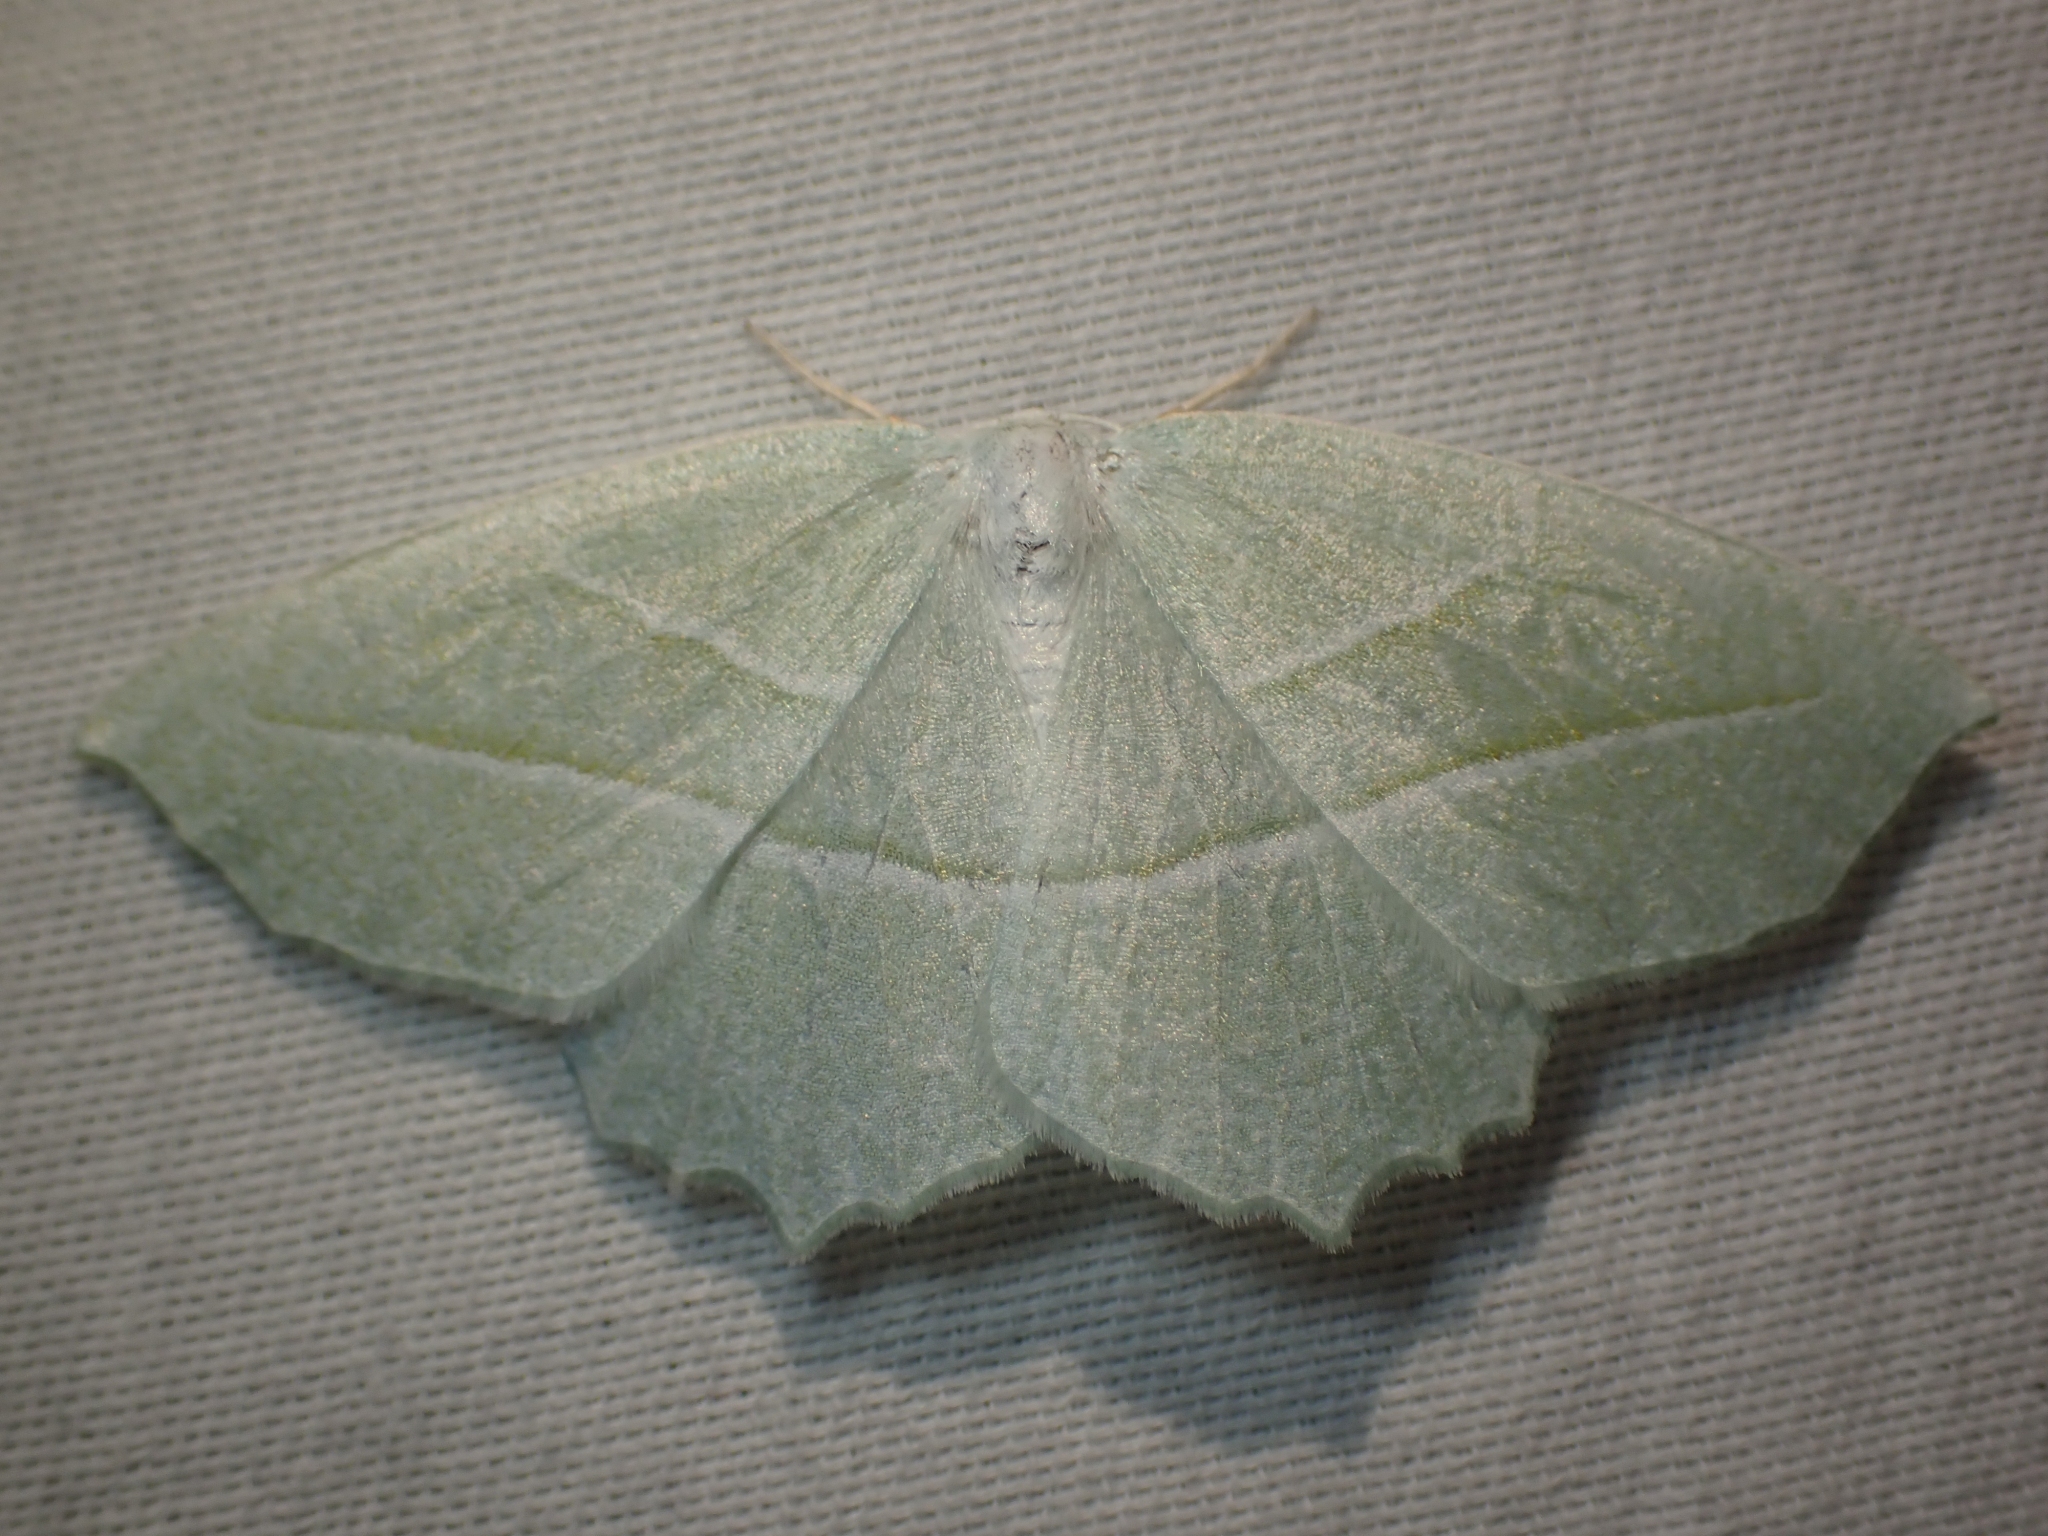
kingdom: Animalia
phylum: Arthropoda
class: Insecta
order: Lepidoptera
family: Geometridae
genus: Campaea
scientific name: Campaea perlata
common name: Fringed looper
